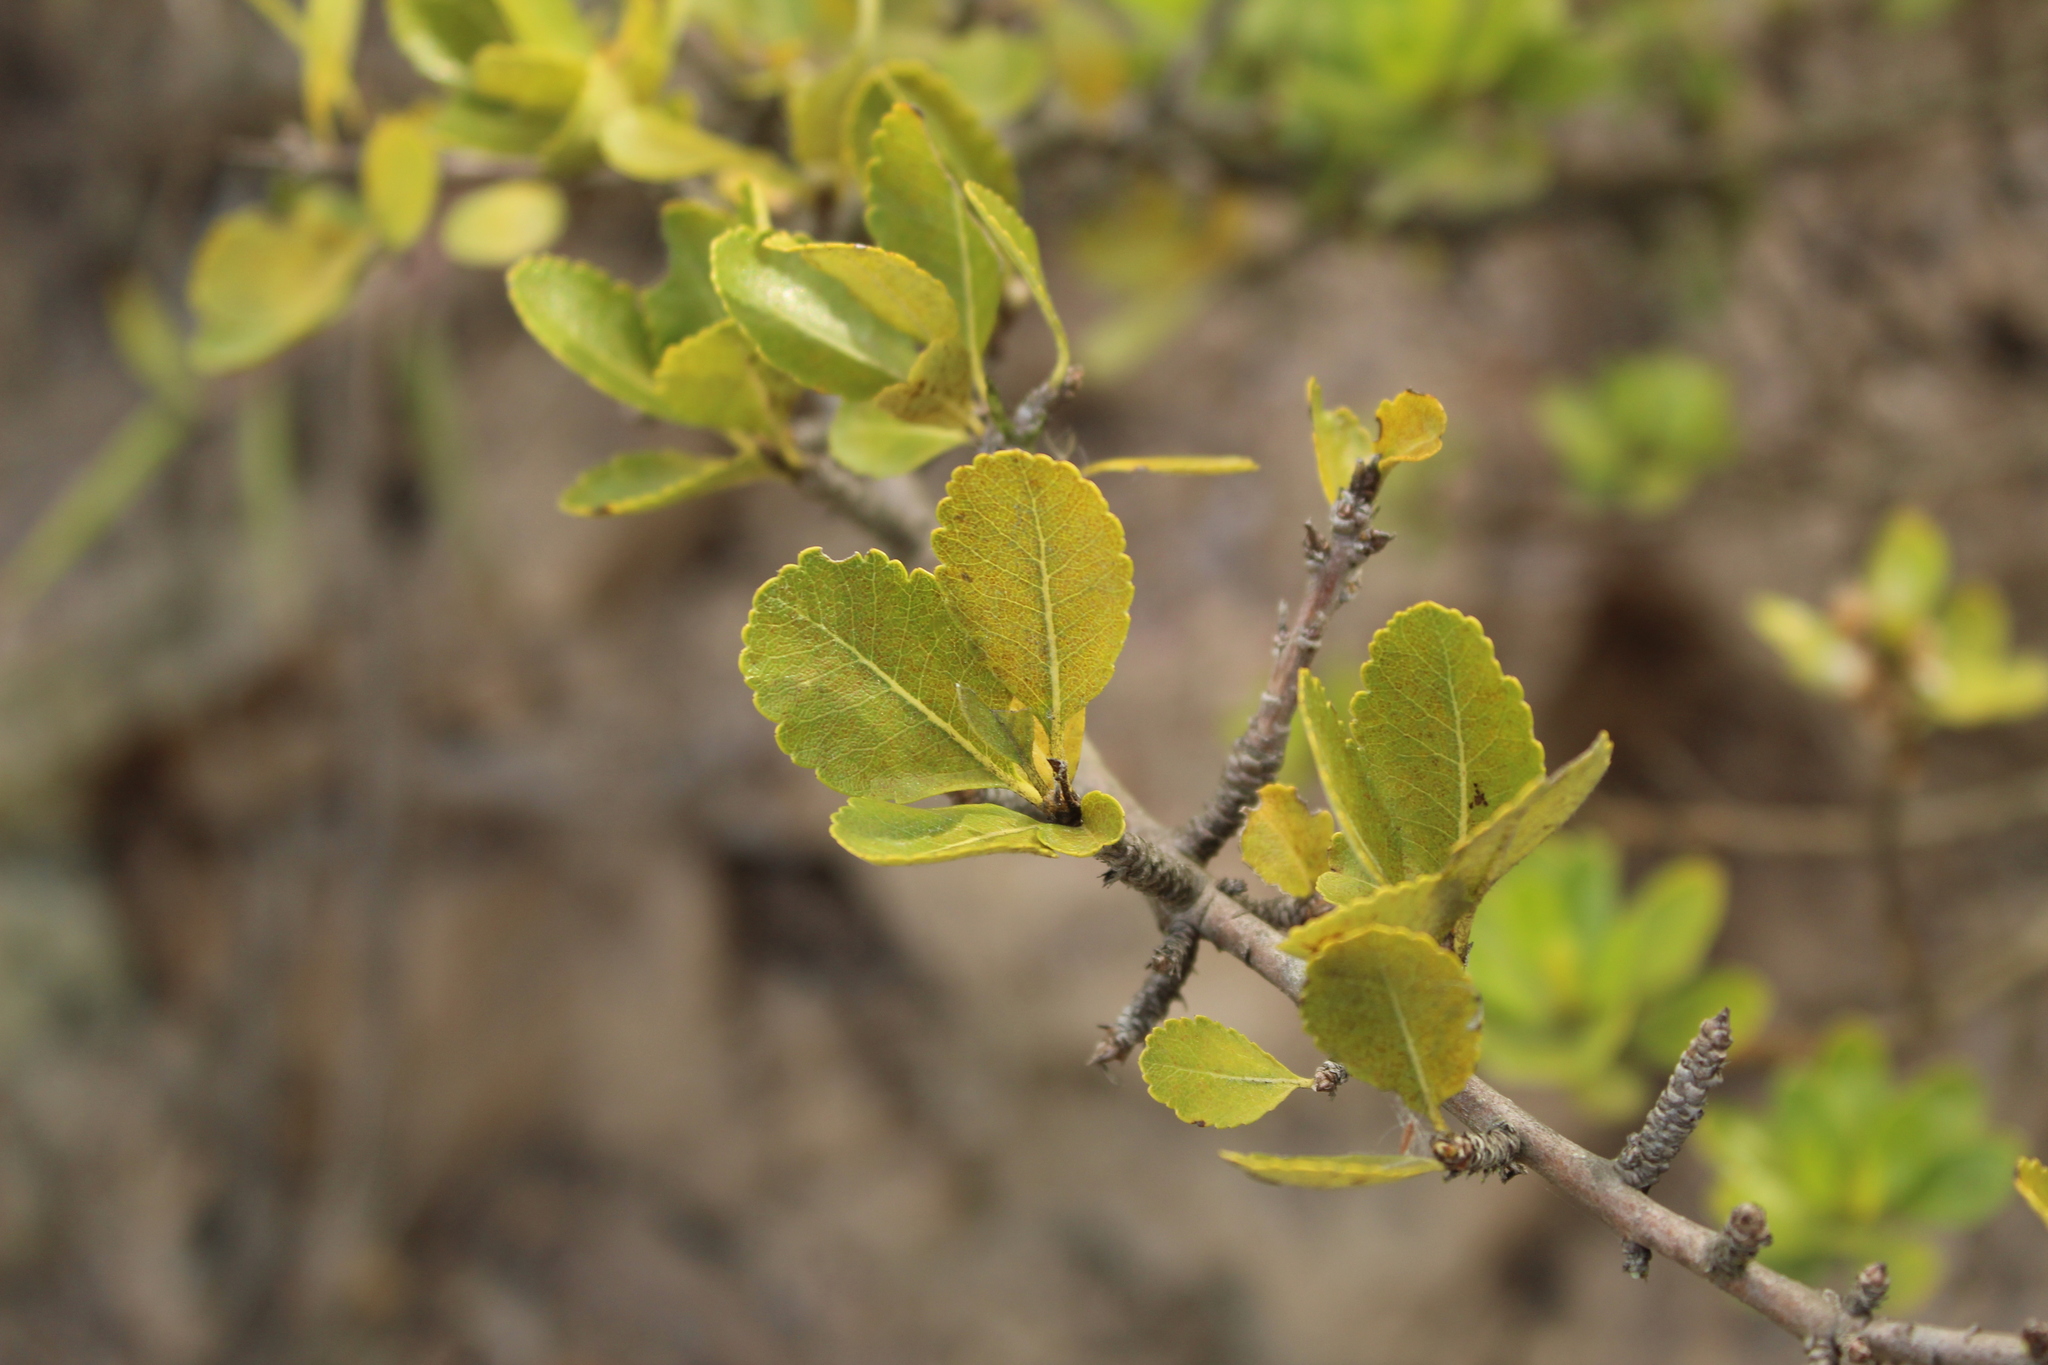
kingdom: Plantae
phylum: Tracheophyta
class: Magnoliopsida
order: Rosales
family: Rosaceae
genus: Hesperomeles
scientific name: Hesperomeles obtusifolia
